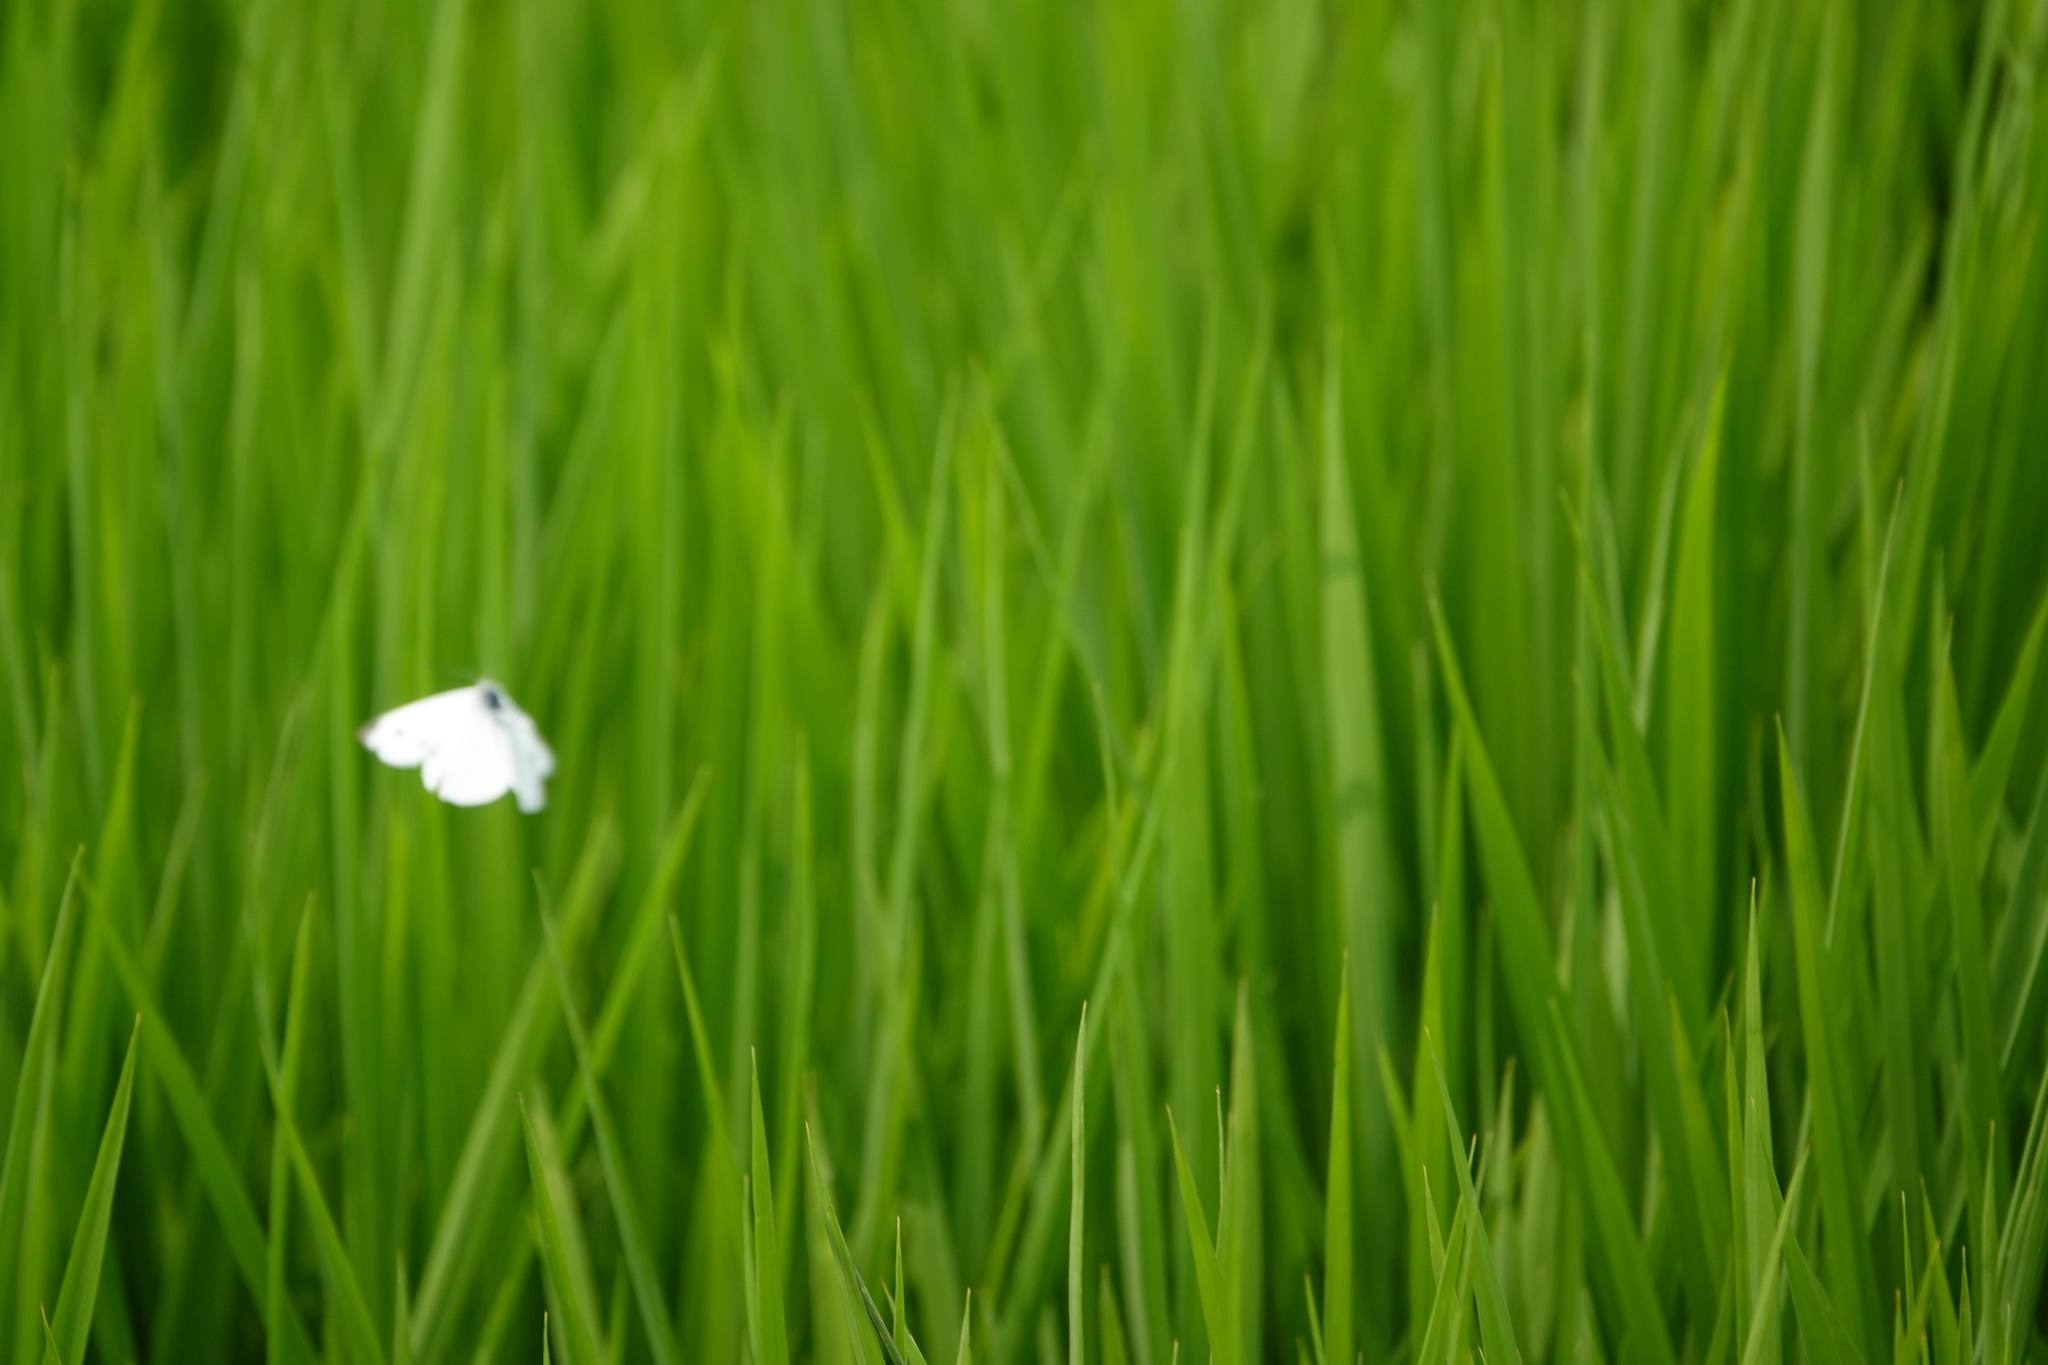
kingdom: Animalia
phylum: Arthropoda
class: Insecta
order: Lepidoptera
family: Pieridae
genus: Pieris
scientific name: Pieris rapae
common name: Small white
